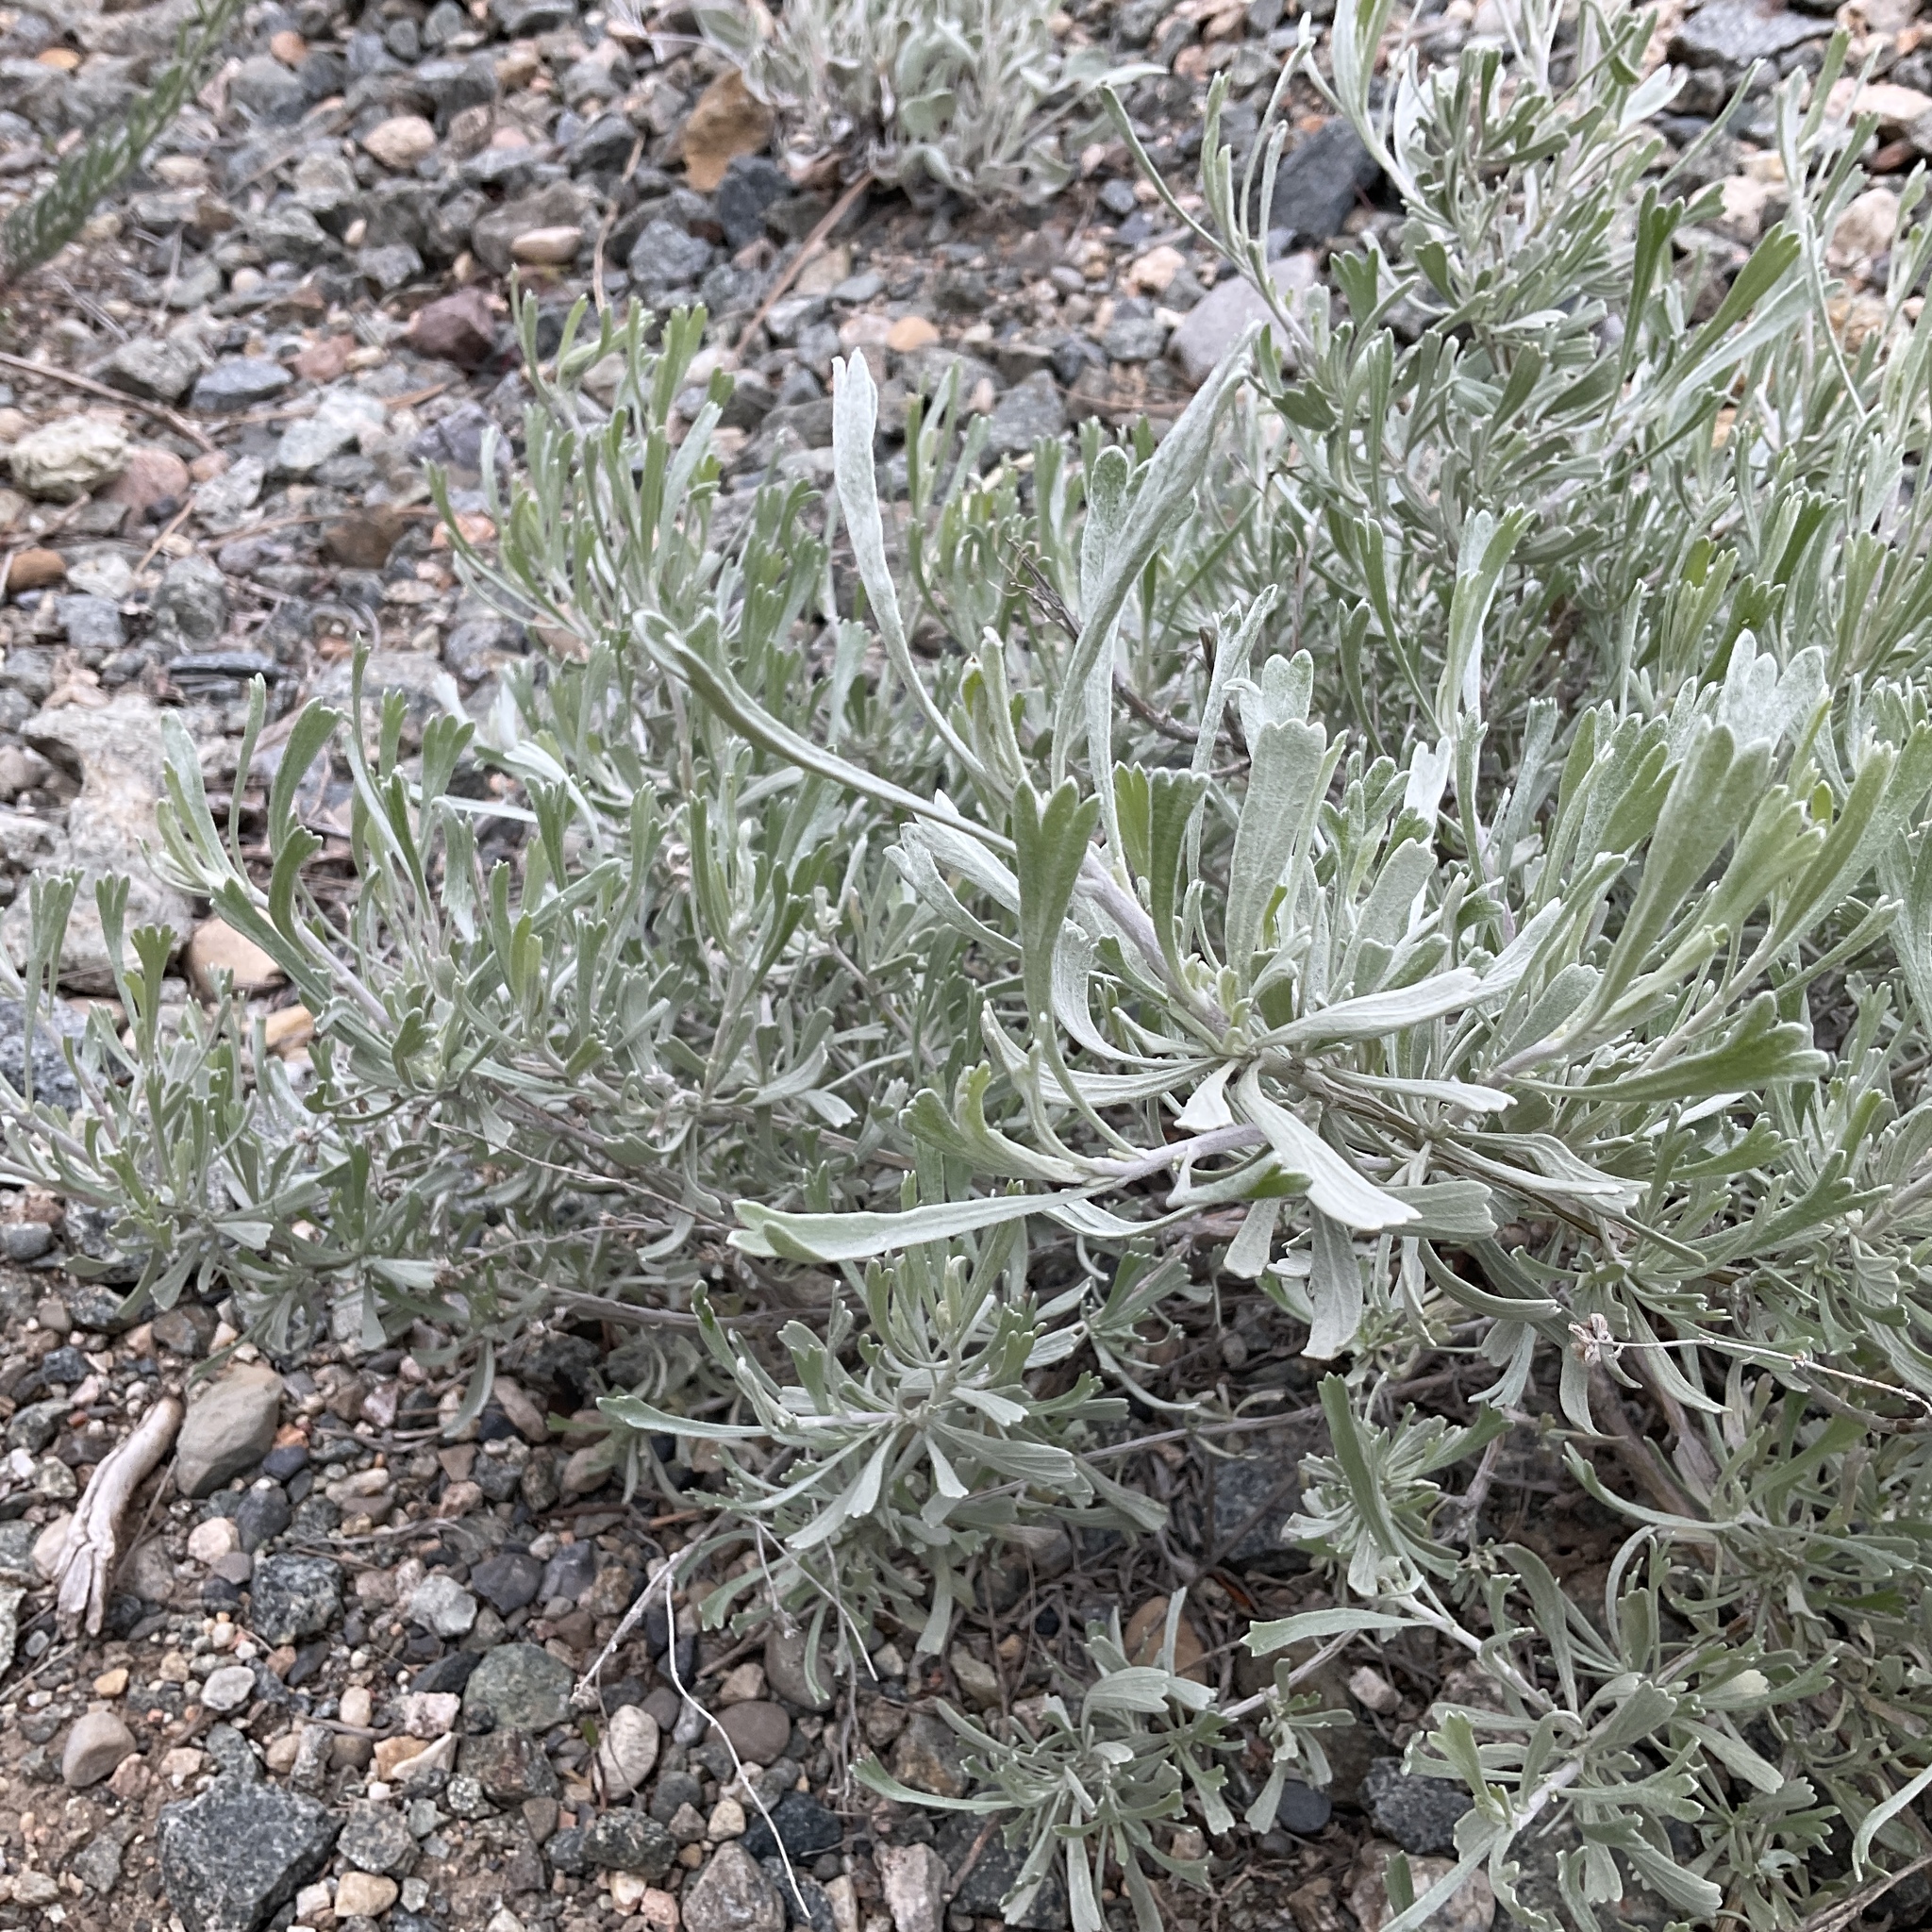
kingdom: Plantae
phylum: Tracheophyta
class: Magnoliopsida
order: Asterales
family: Asteraceae
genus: Artemisia
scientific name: Artemisia tridentata
